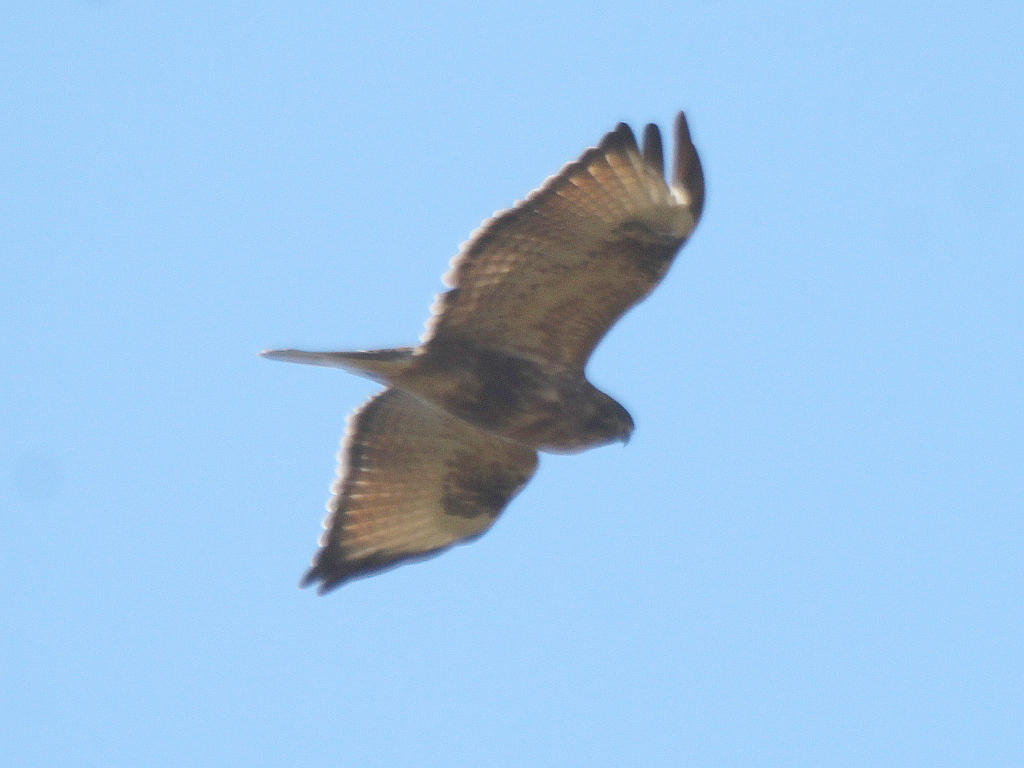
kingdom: Animalia
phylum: Chordata
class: Aves
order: Accipitriformes
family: Accipitridae
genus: Buteo
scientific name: Buteo japonicus
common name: Eastern buzzard
